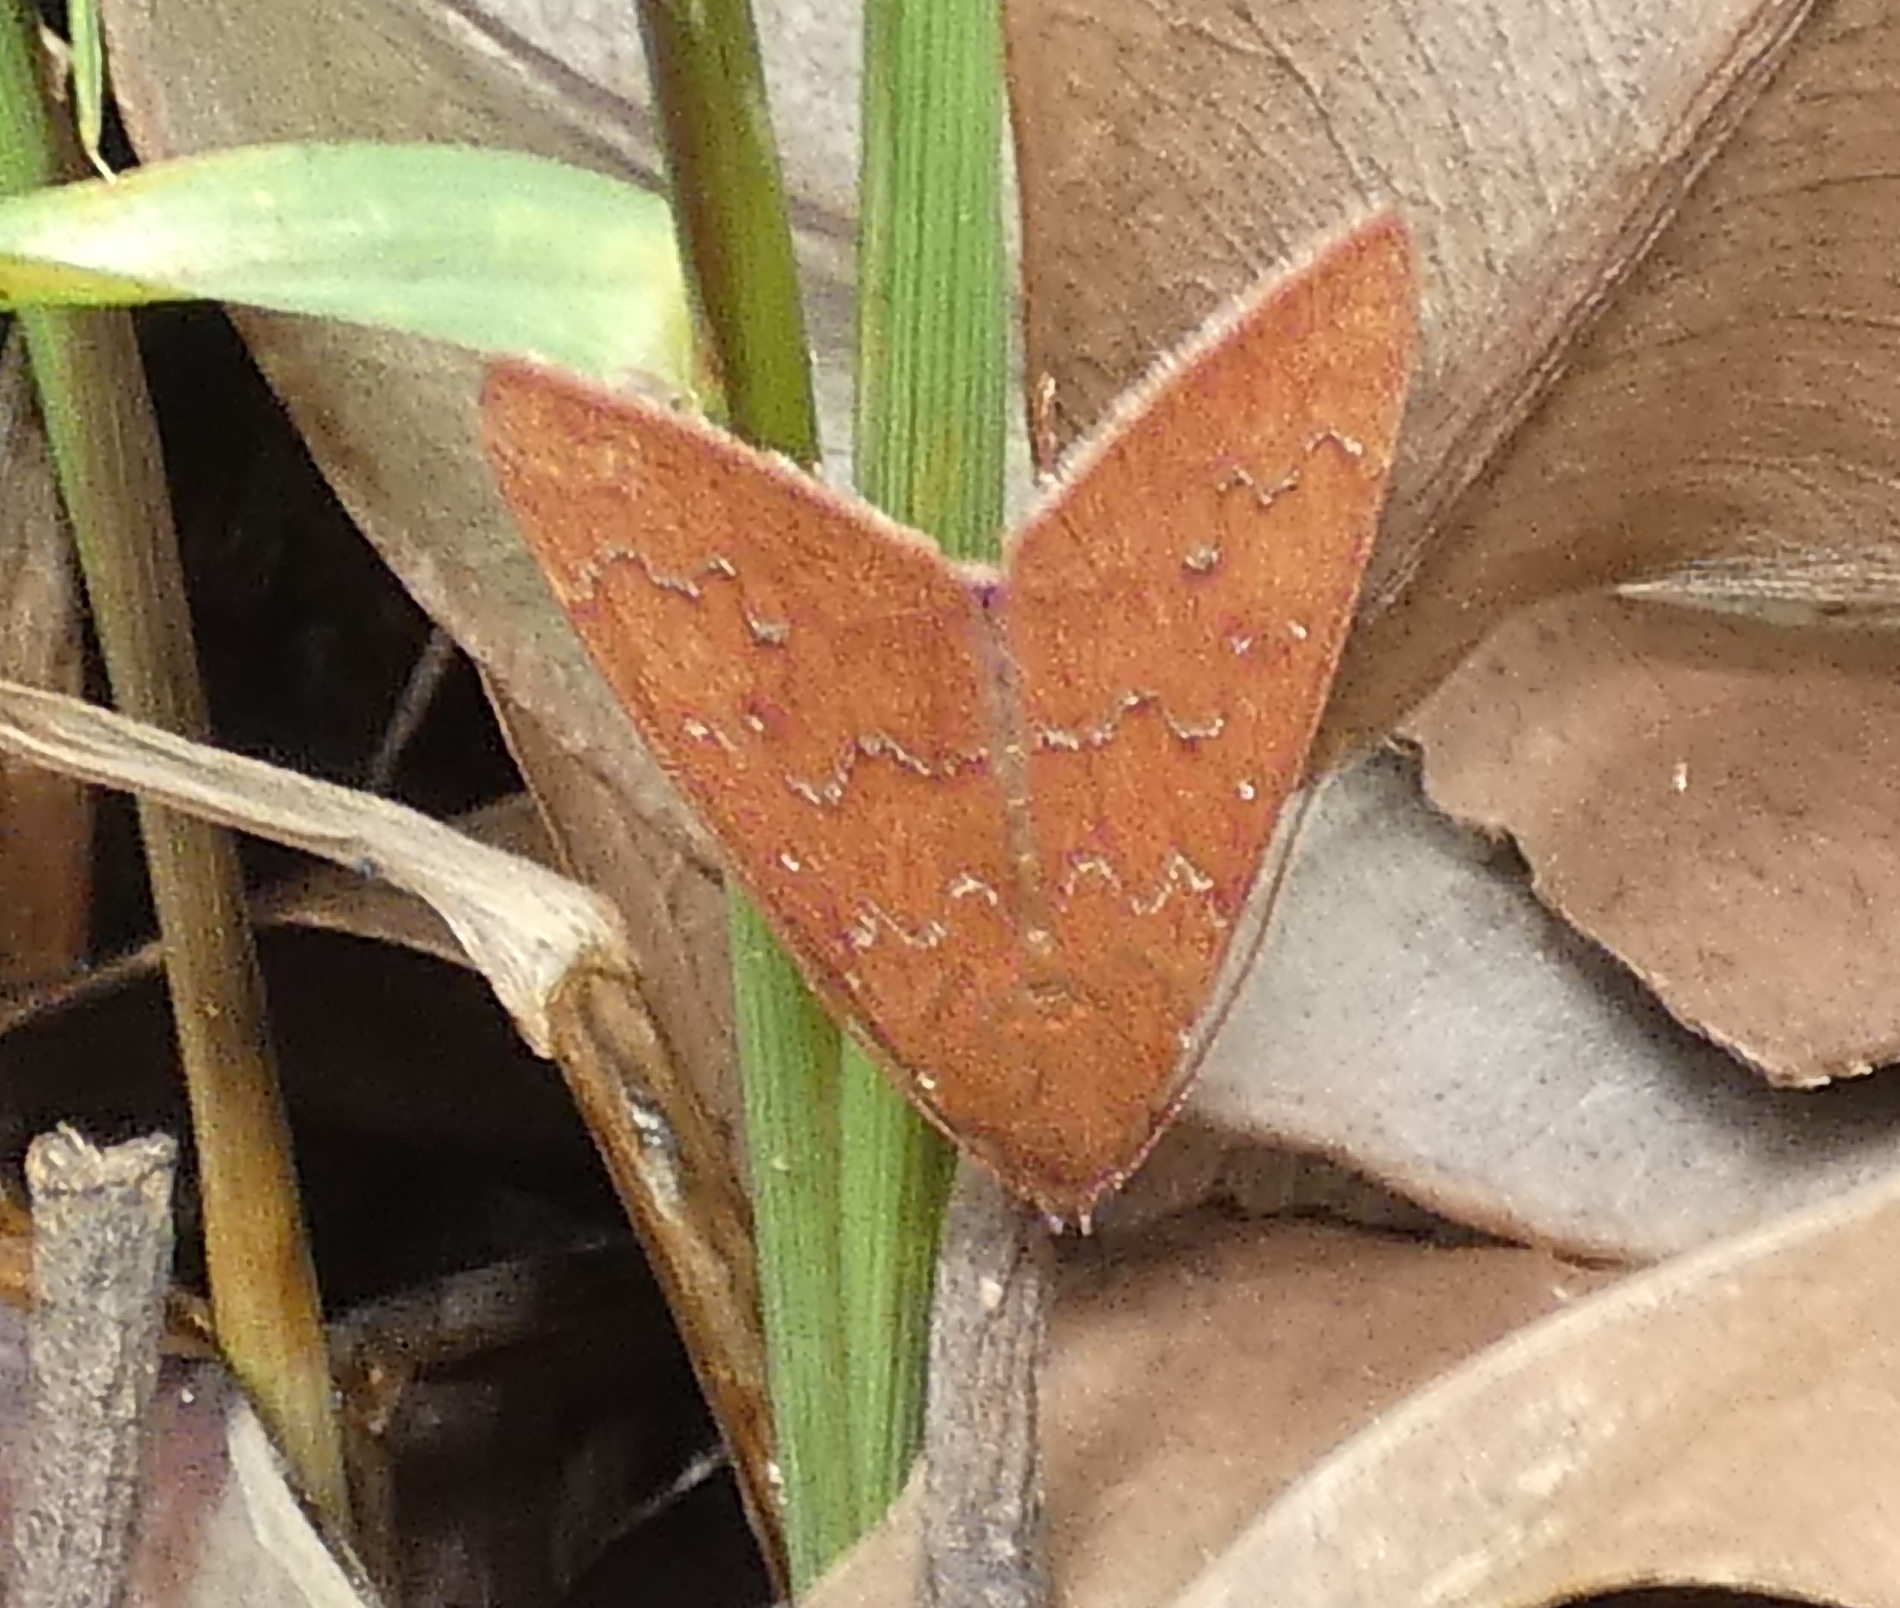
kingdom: Animalia
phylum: Arthropoda
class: Insecta
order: Lepidoptera
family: Erebidae
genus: Anomis
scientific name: Anomis illita
